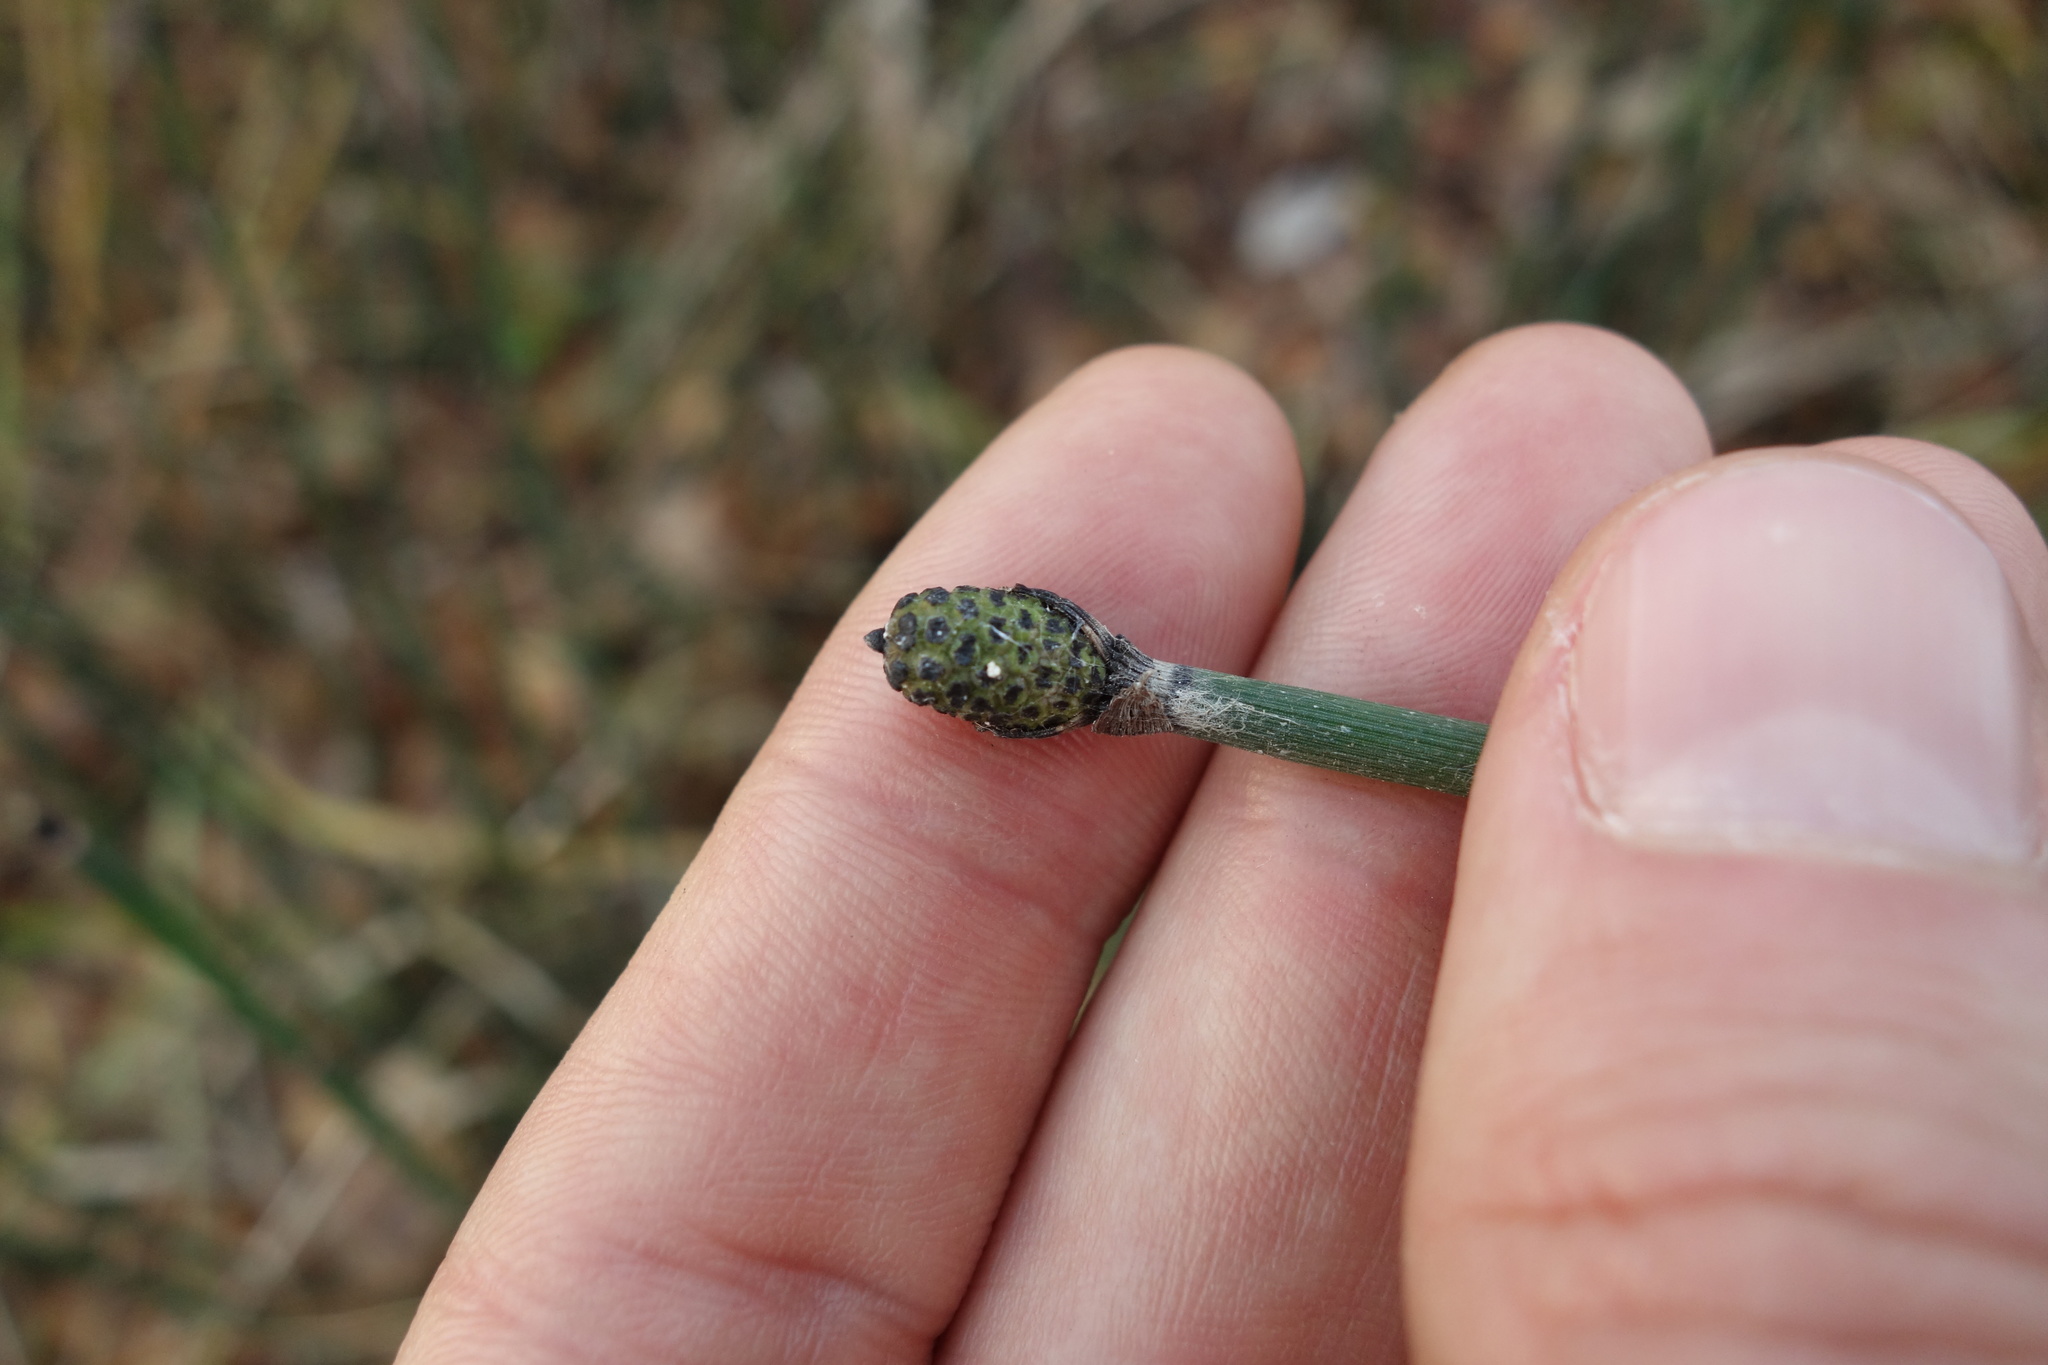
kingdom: Plantae
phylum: Tracheophyta
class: Polypodiopsida
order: Equisetales
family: Equisetaceae
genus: Equisetum
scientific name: Equisetum hyemale
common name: Rough horsetail
